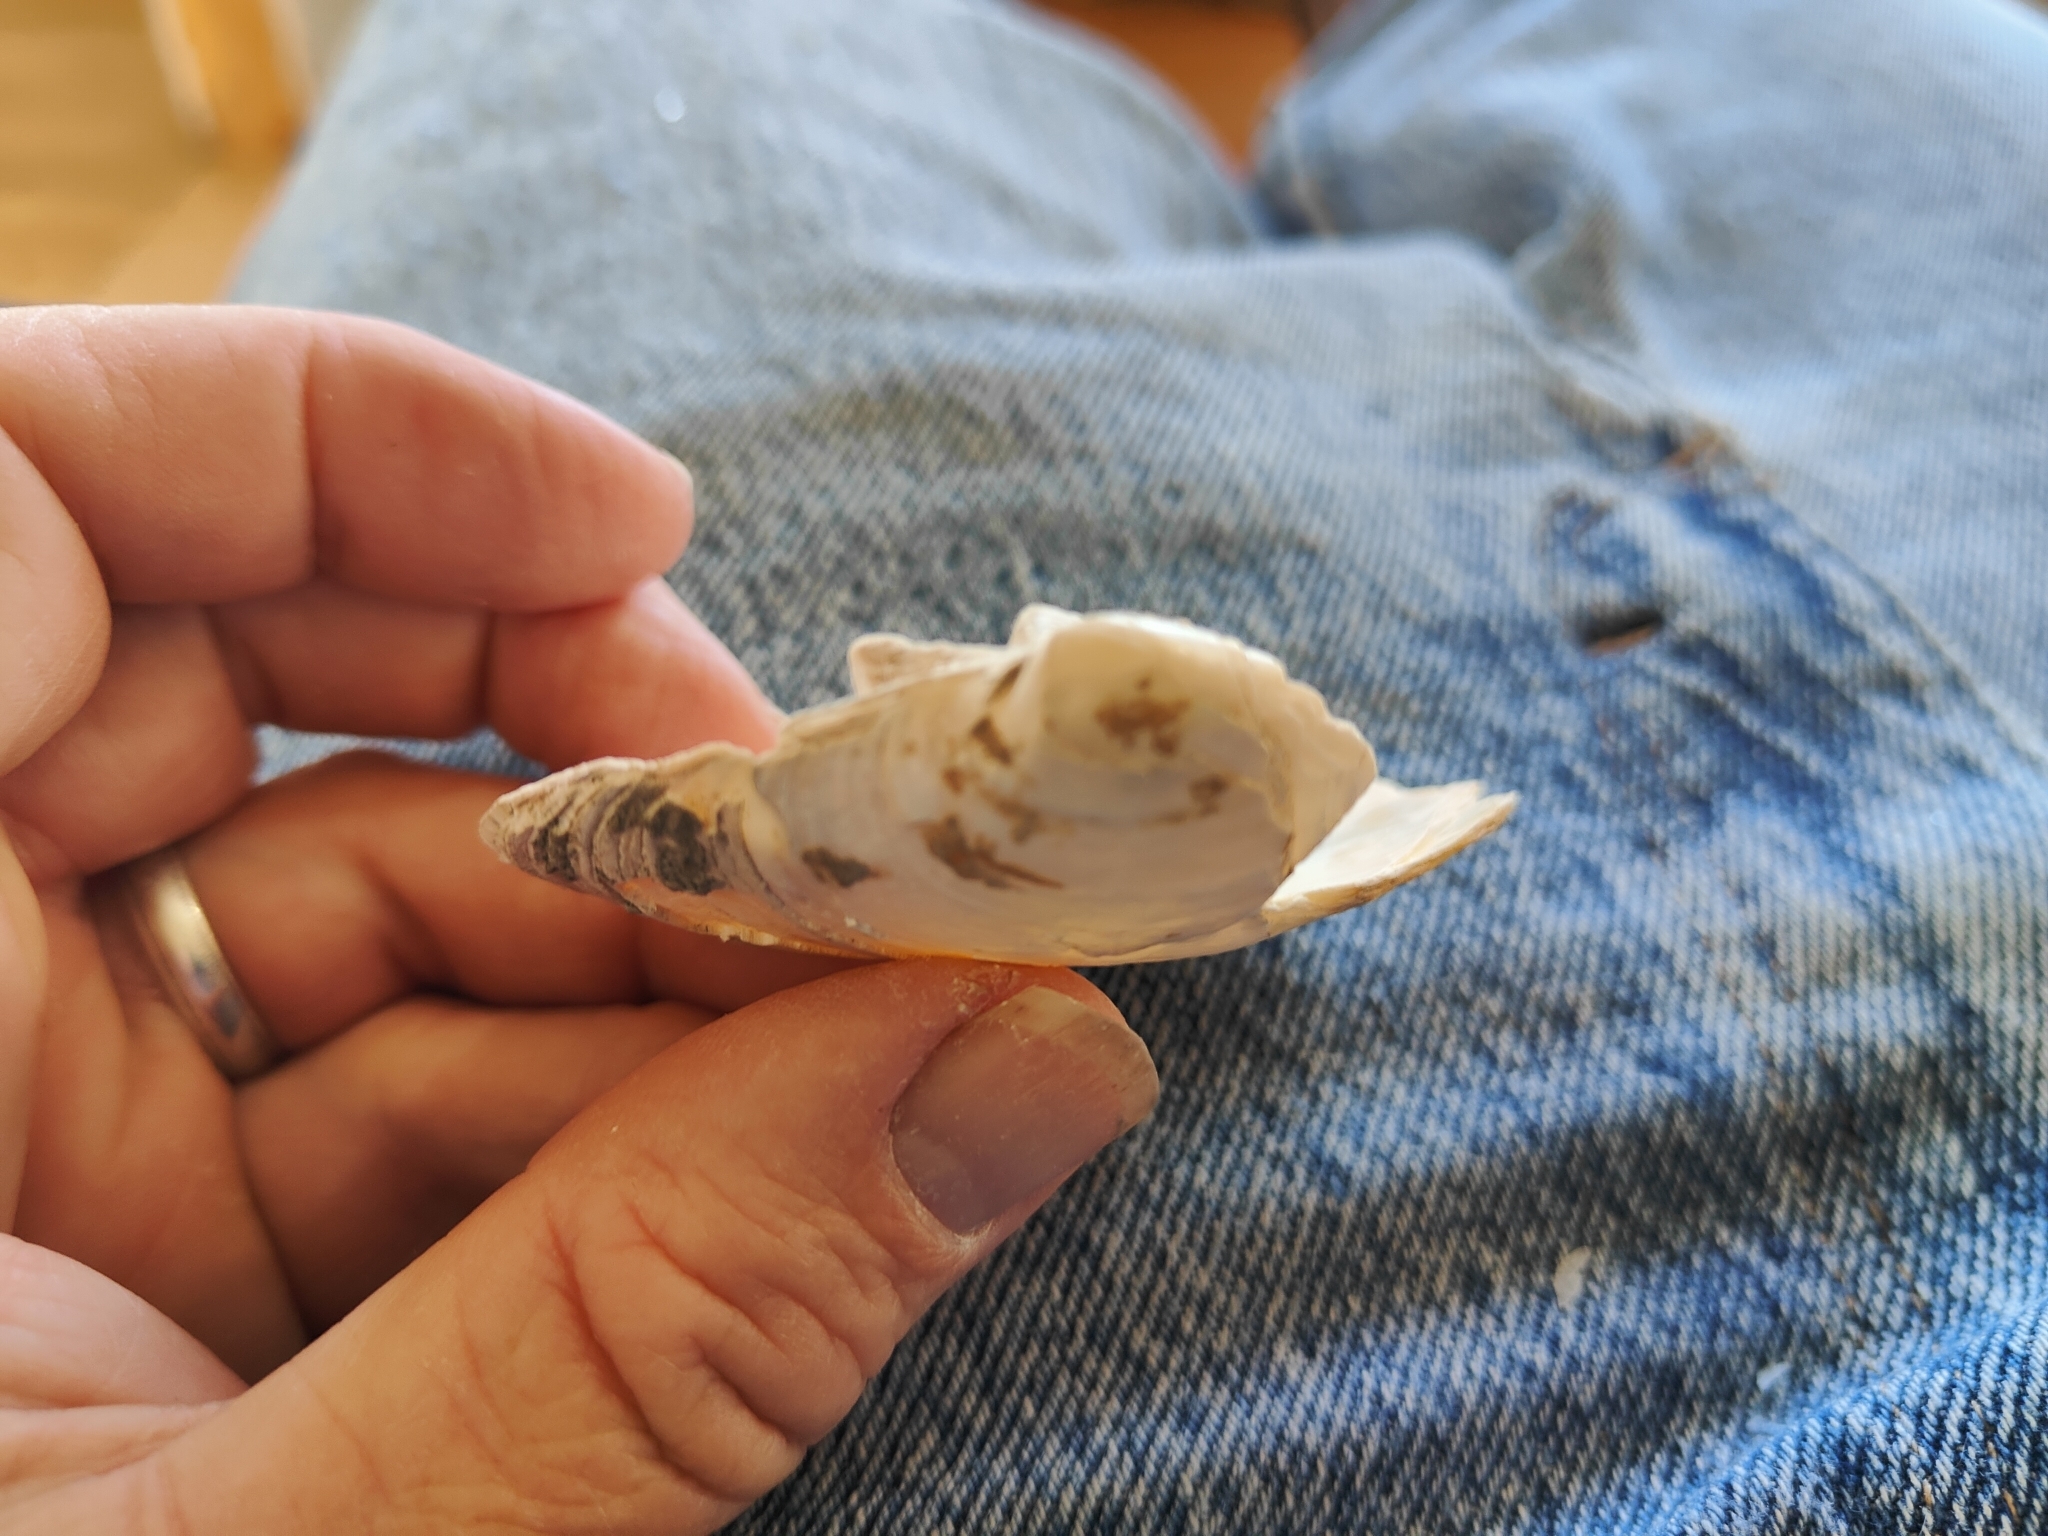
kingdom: Animalia
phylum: Mollusca
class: Bivalvia
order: Unionida
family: Unionidae
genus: Lampsilis
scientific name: Lampsilis cardium
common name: Plain pocketbook
